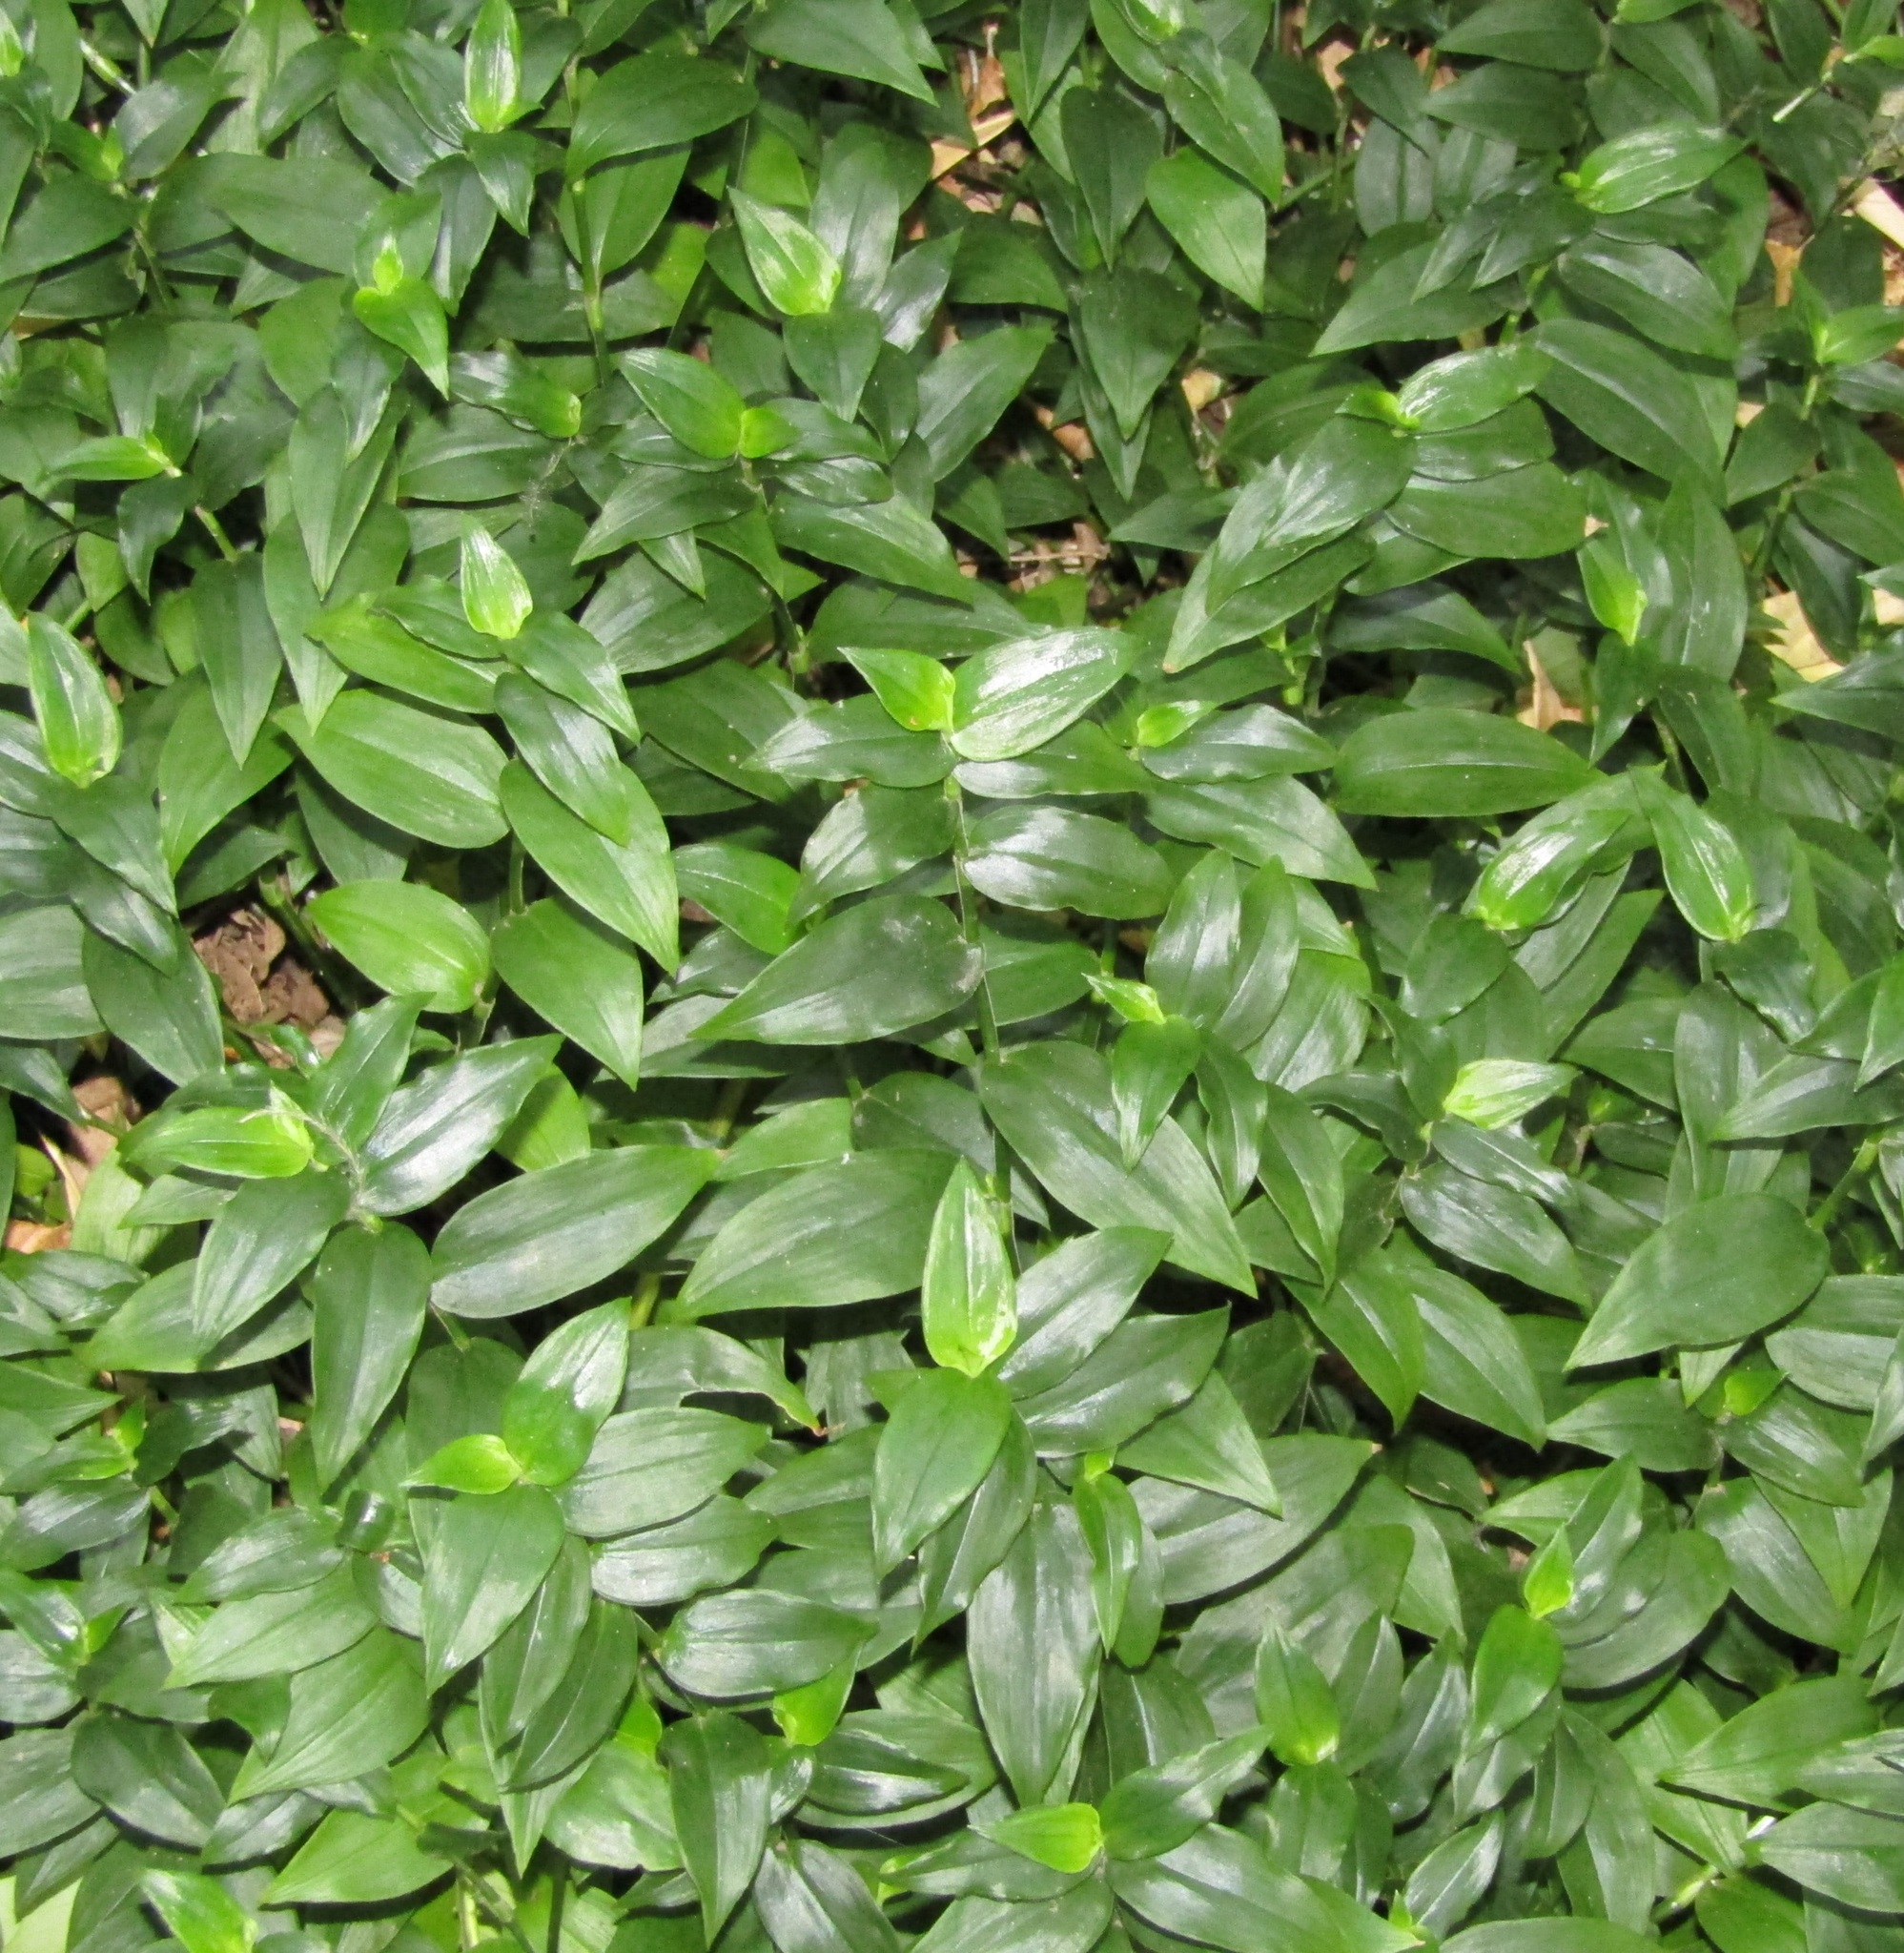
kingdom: Plantae
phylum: Tracheophyta
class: Liliopsida
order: Commelinales
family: Commelinaceae
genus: Tradescantia
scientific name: Tradescantia fluminensis
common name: Wandering-jew
